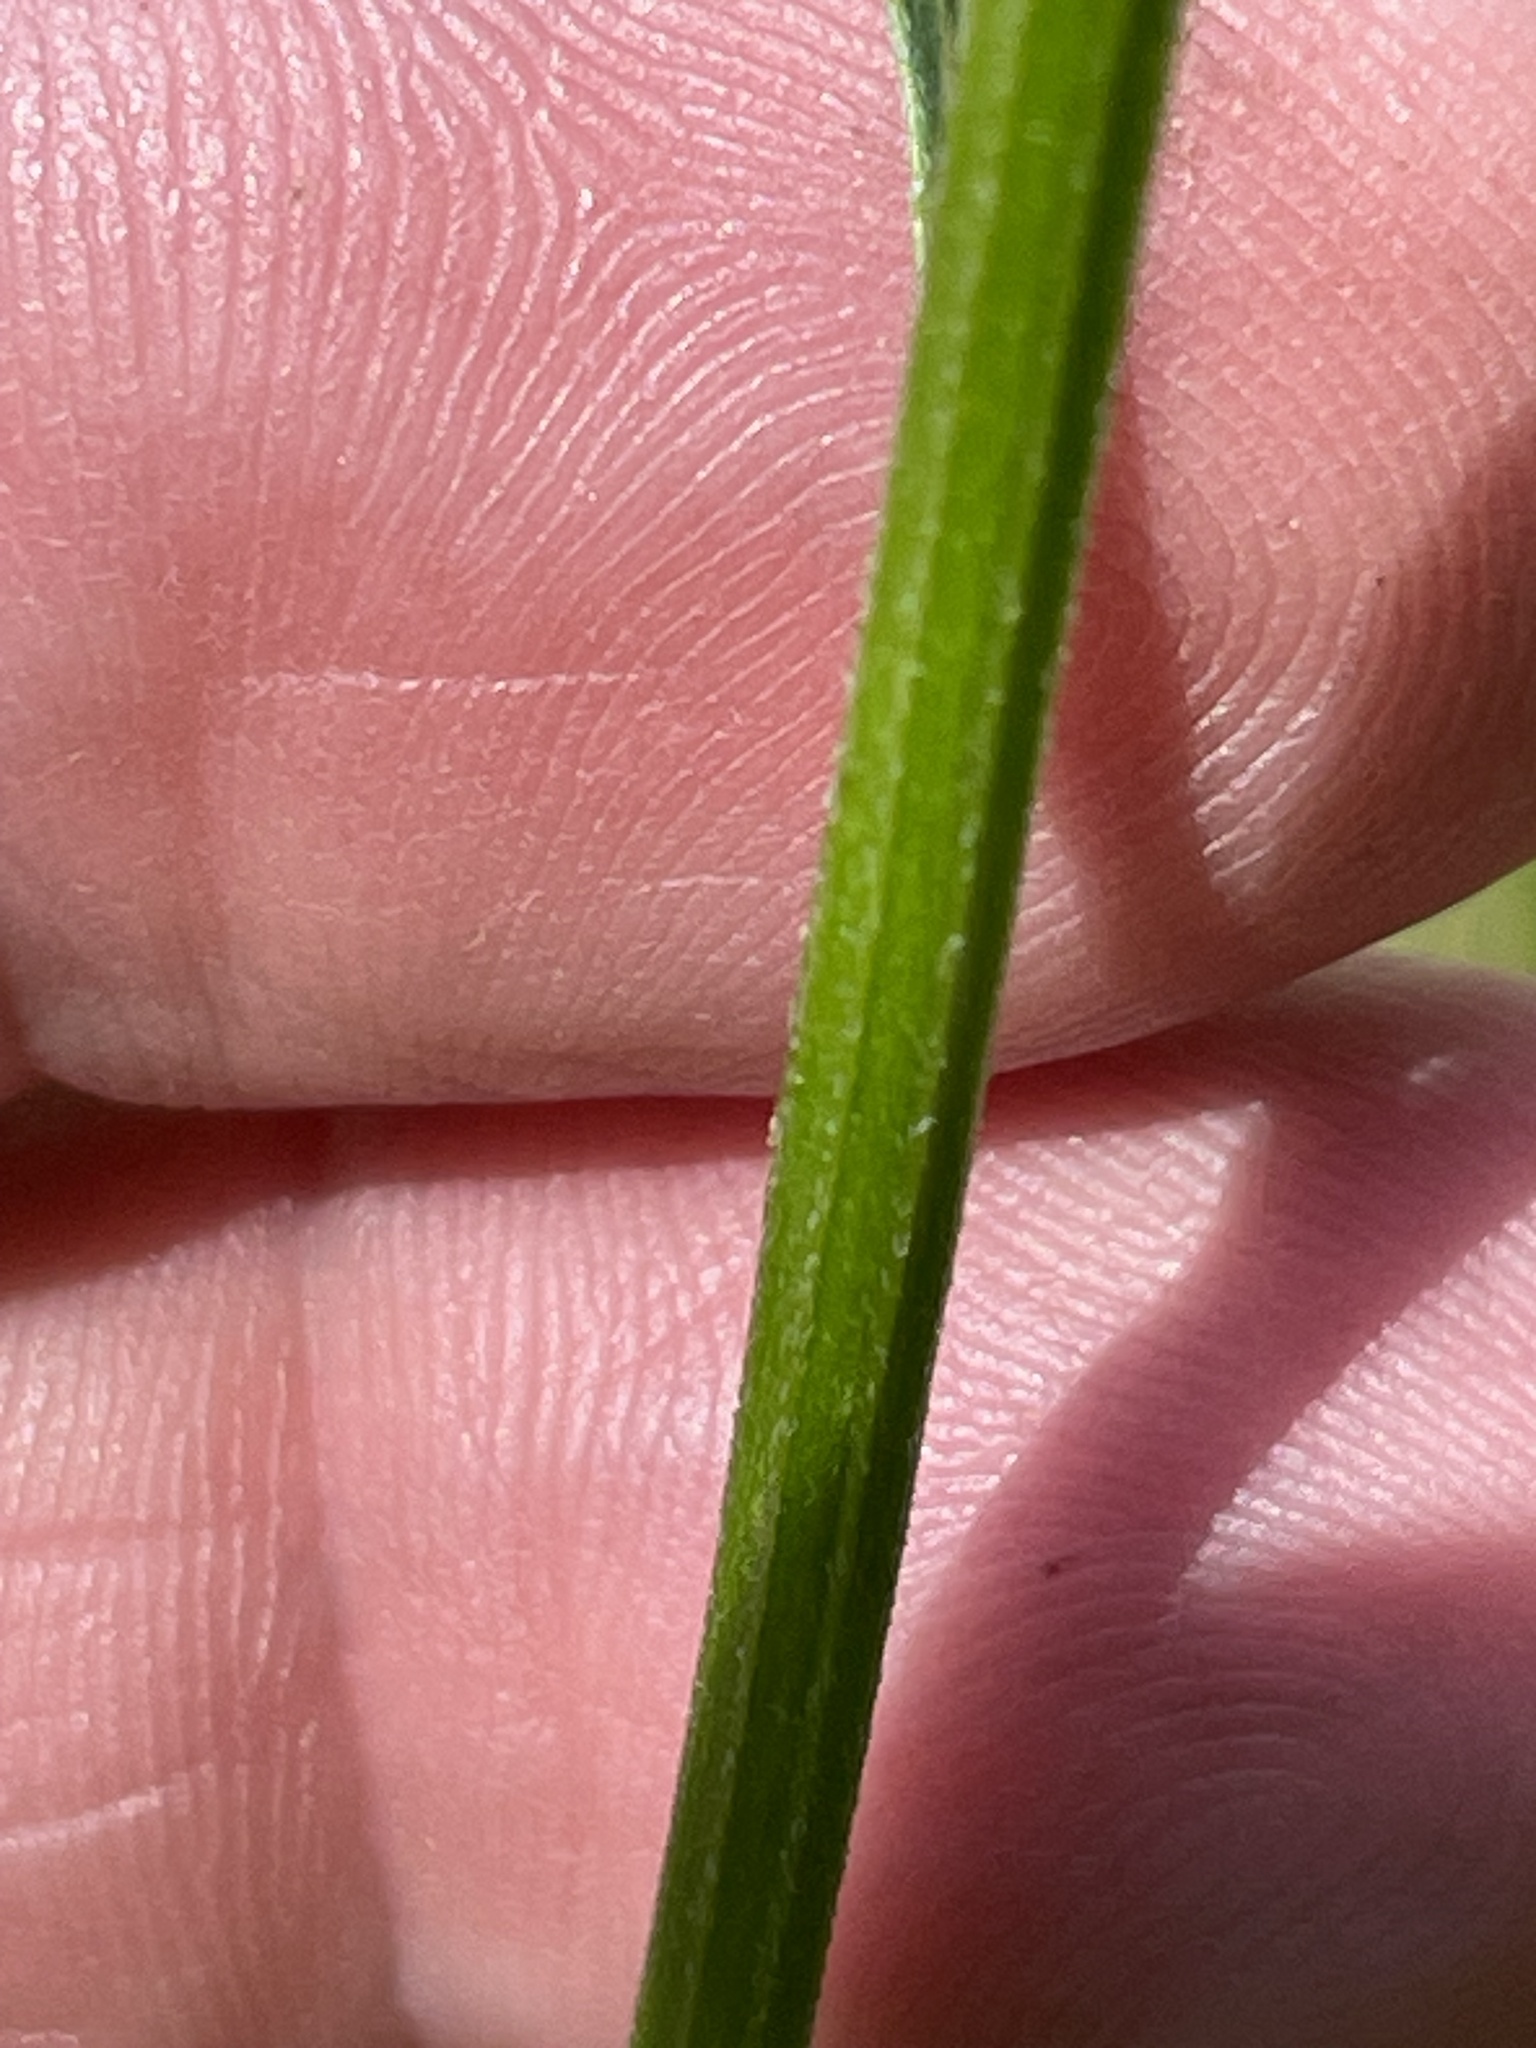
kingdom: Plantae
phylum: Tracheophyta
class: Magnoliopsida
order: Asterales
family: Asteraceae
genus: Erigeron
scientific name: Erigeron strigosus
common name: Common eastern fleabane
